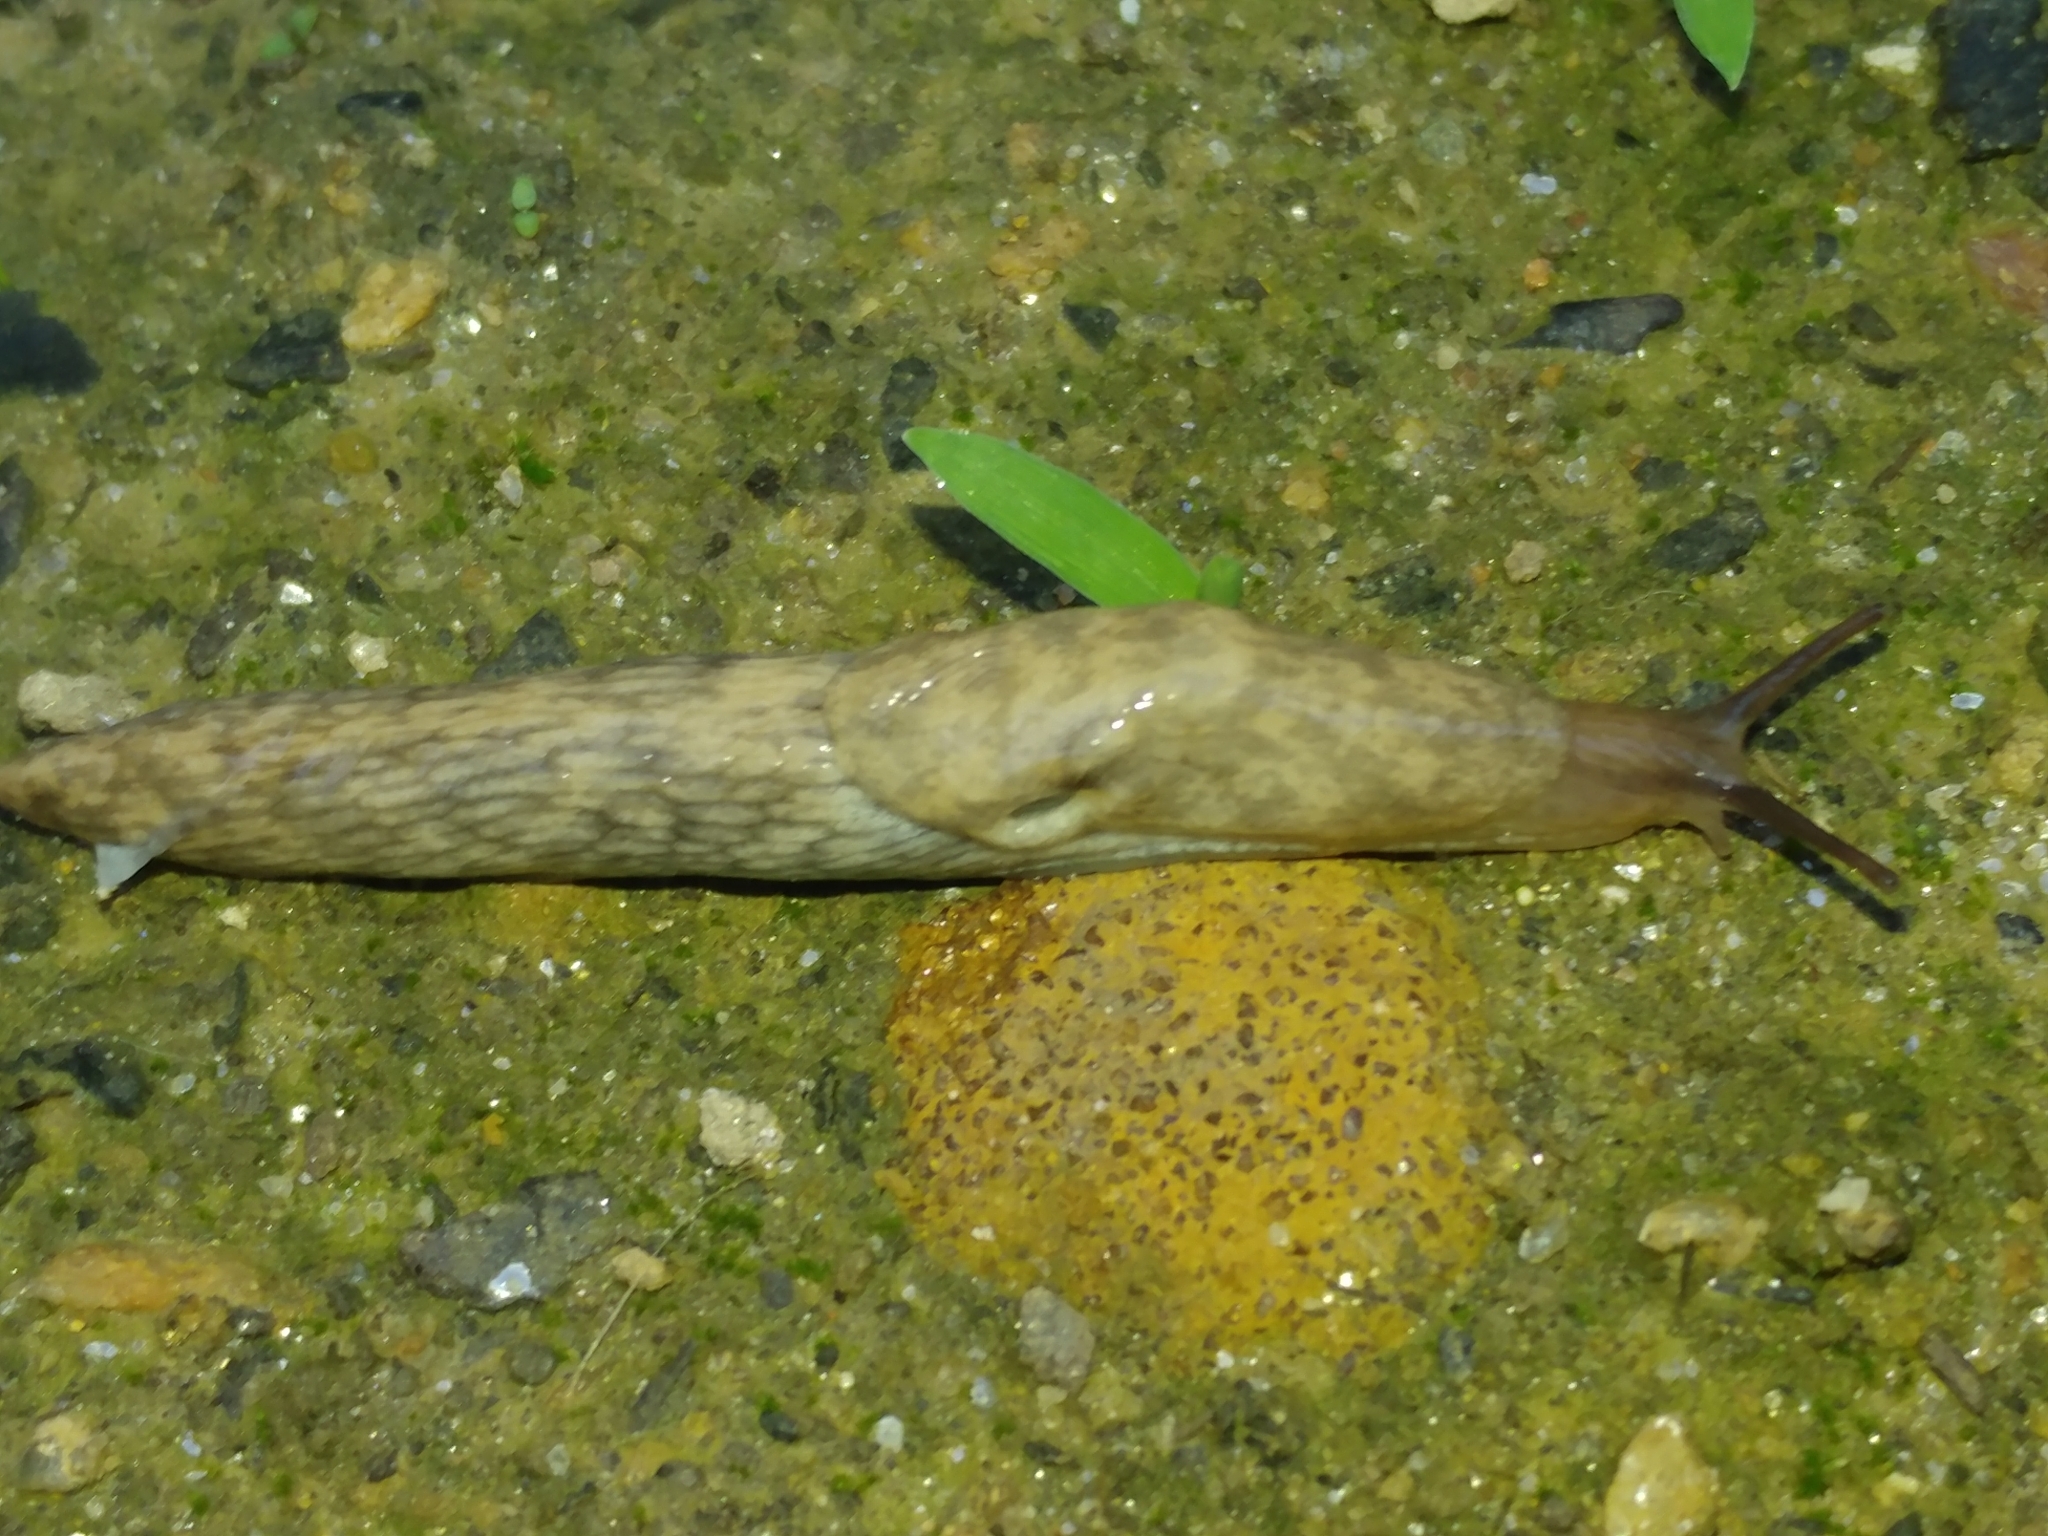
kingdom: Animalia
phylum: Mollusca
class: Gastropoda
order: Stylommatophora
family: Agriolimacidae
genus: Deroceras
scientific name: Deroceras reticulatum
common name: Gray field slug
